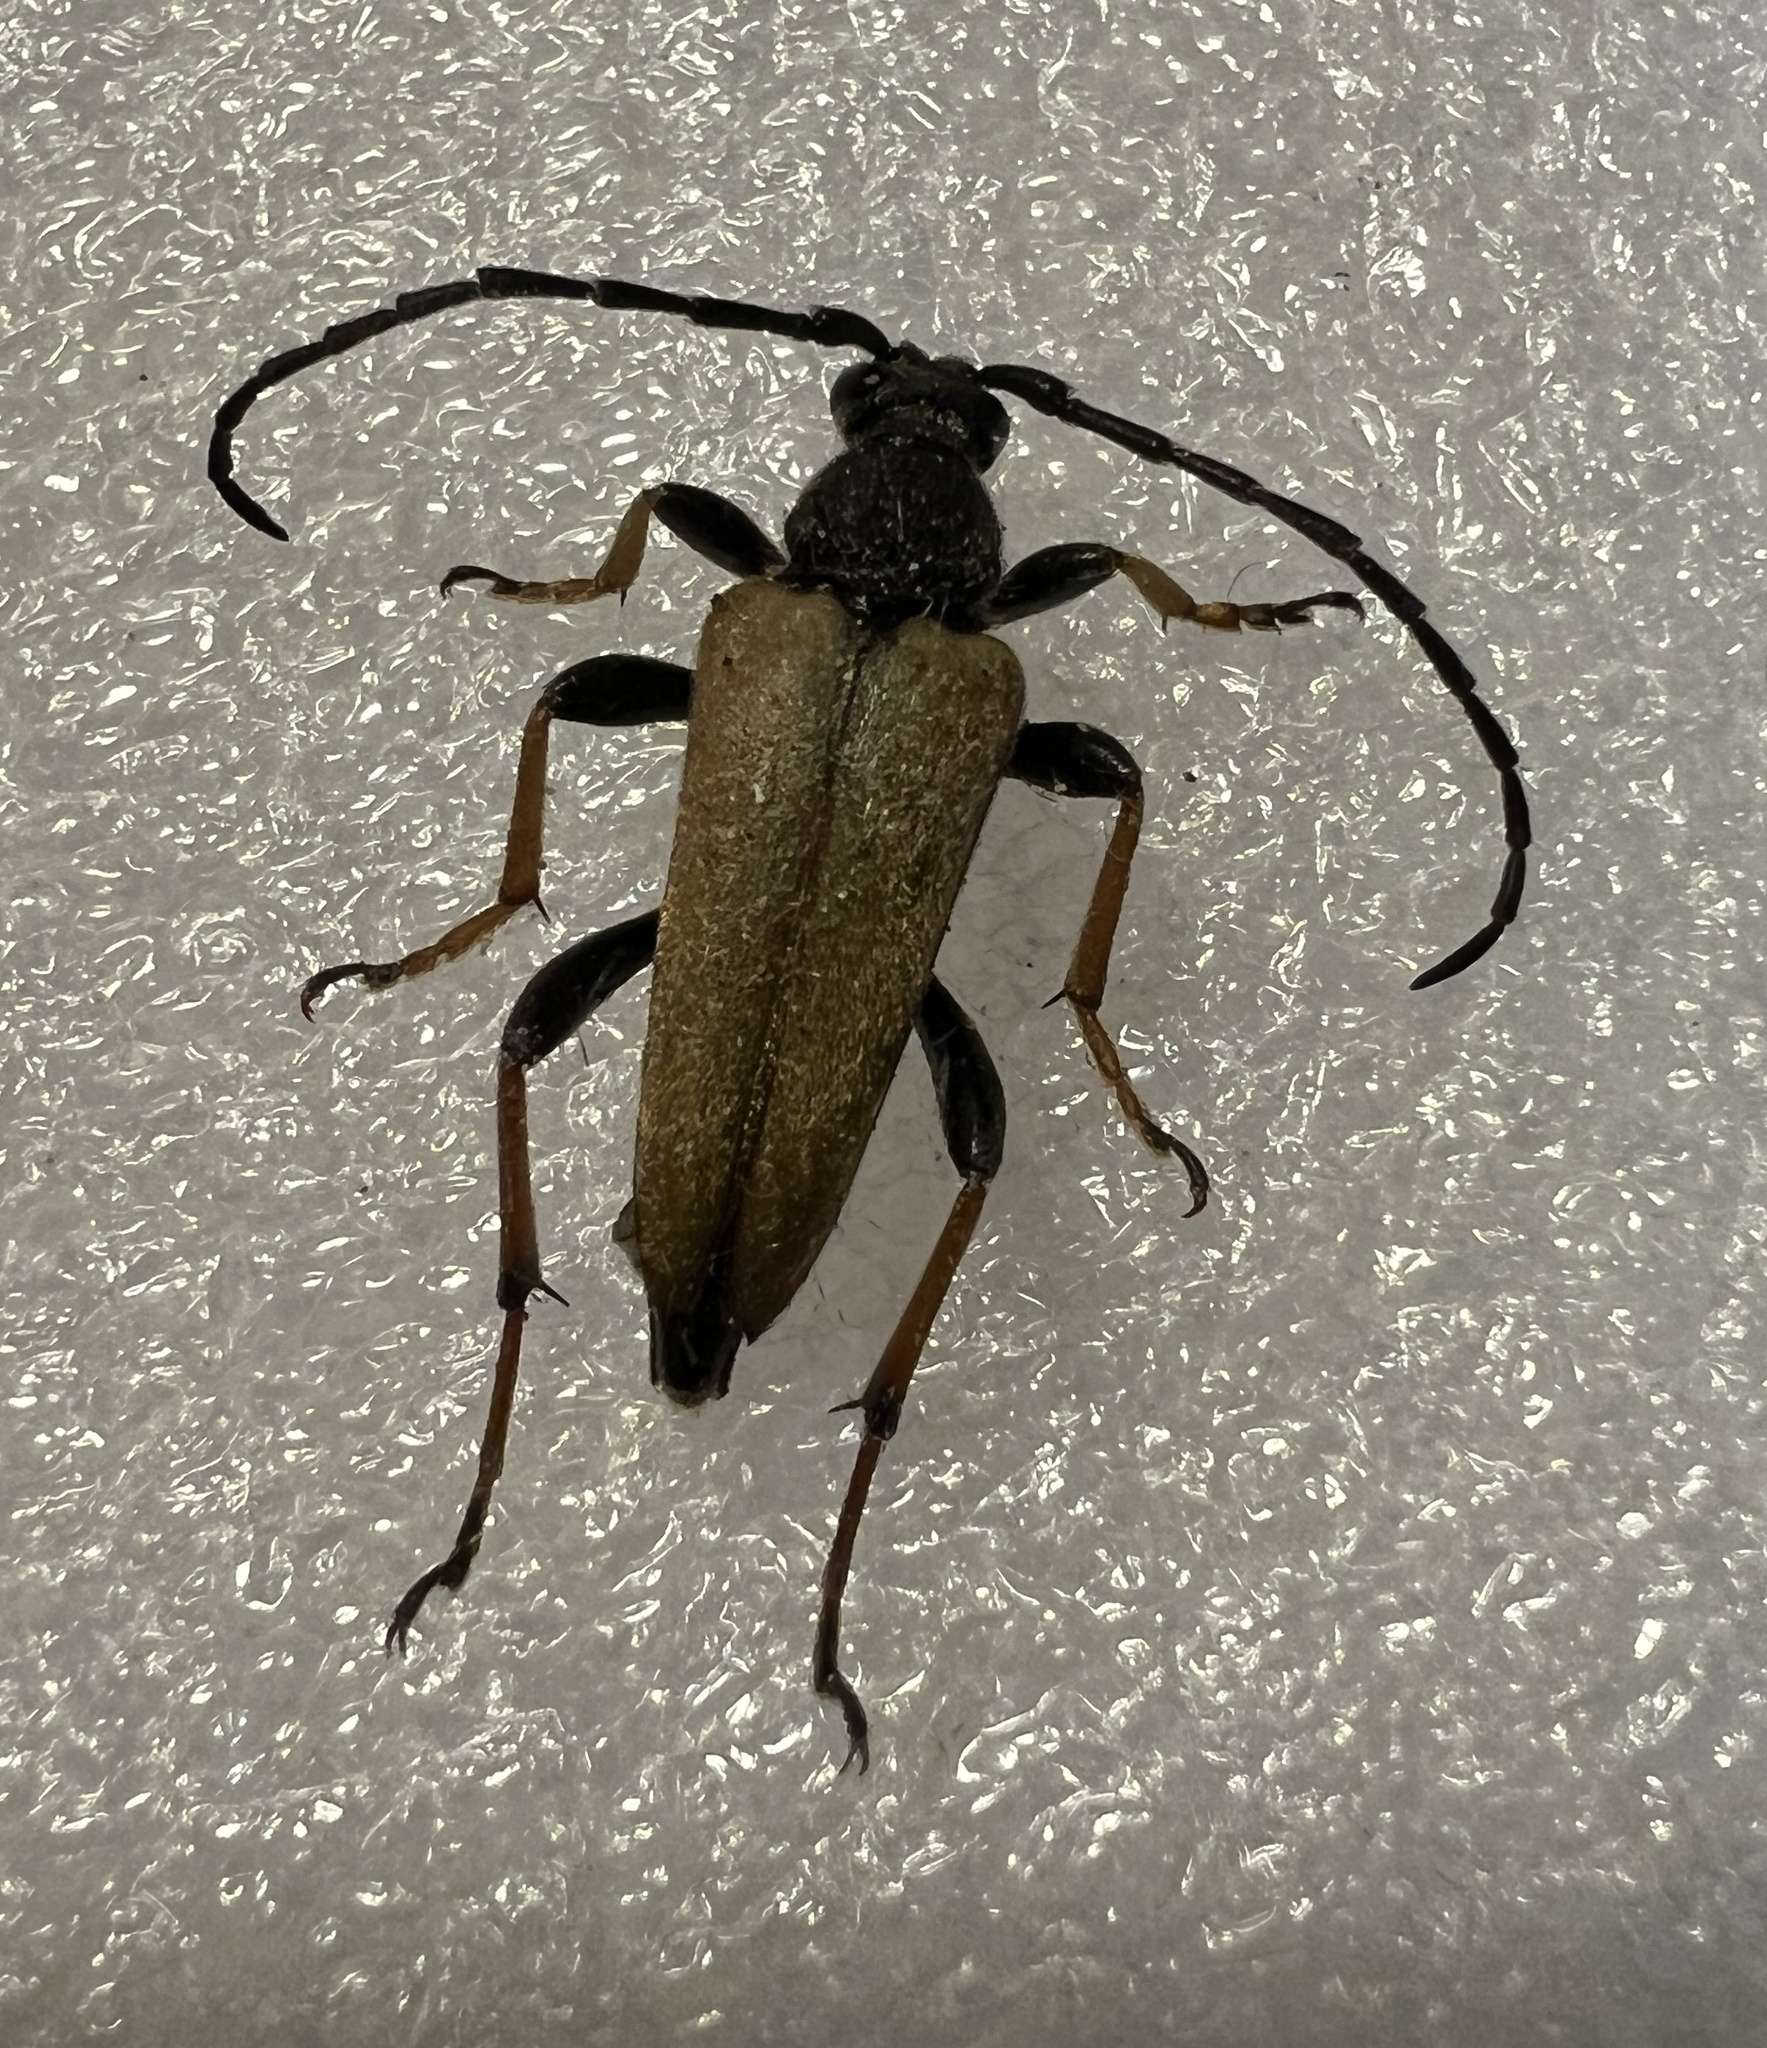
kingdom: Animalia
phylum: Arthropoda
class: Insecta
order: Coleoptera
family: Cerambycidae
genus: Stictoleptura
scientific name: Stictoleptura rubra
